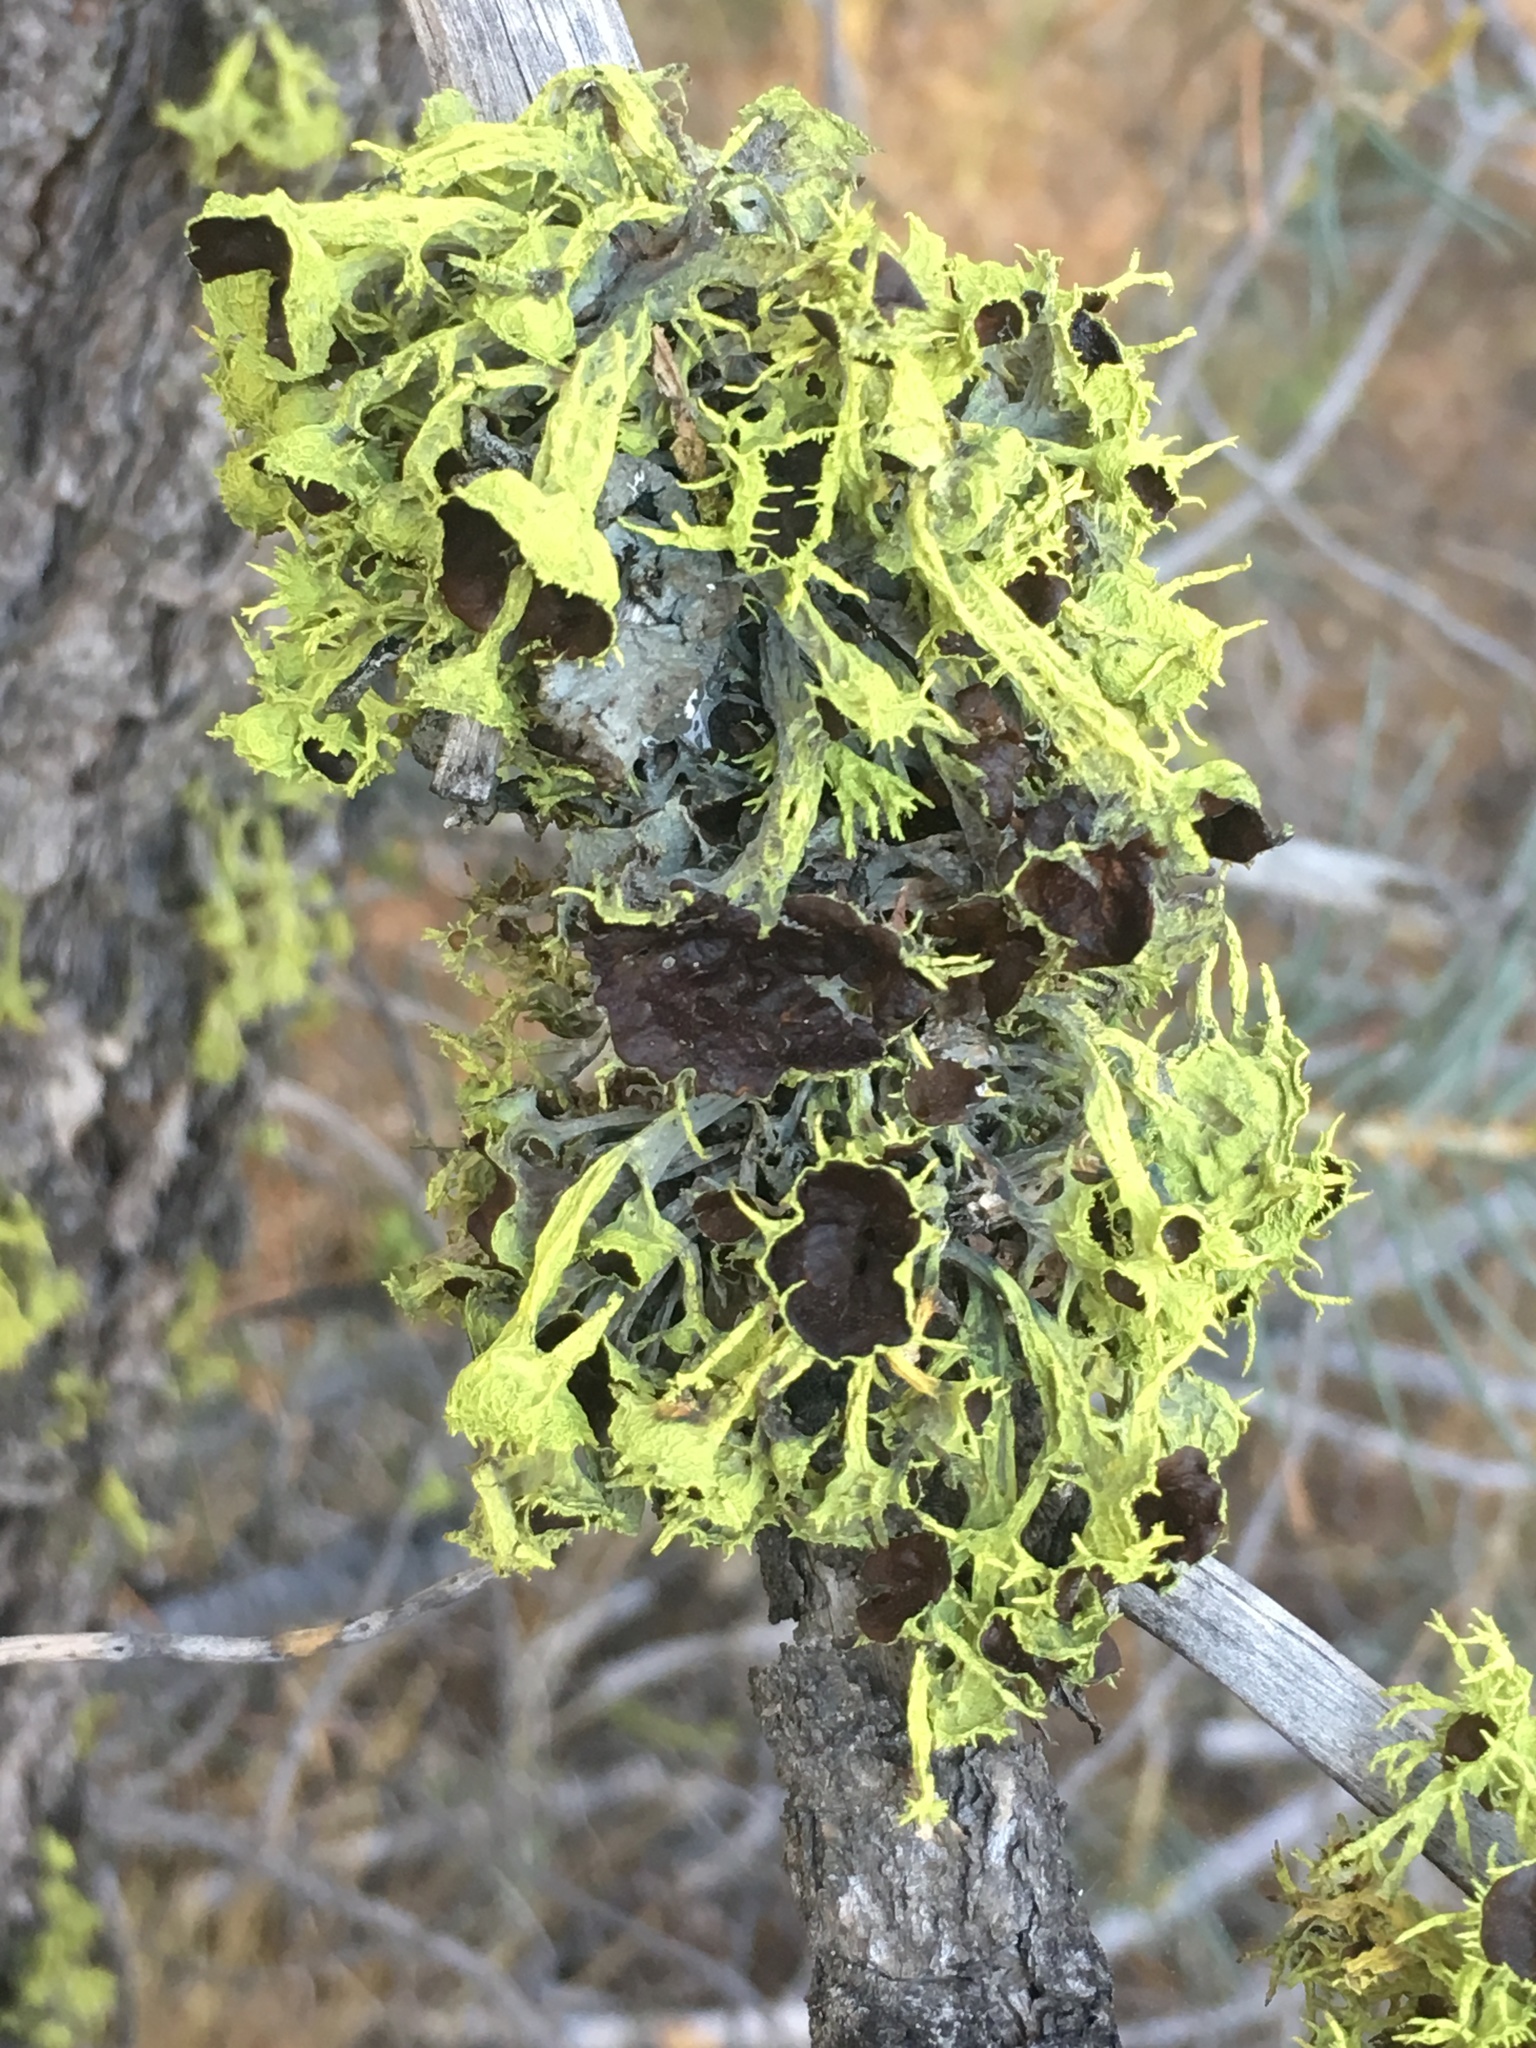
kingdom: Fungi
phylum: Ascomycota
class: Lecanoromycetes
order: Lecanorales
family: Parmeliaceae
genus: Letharia
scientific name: Letharia columbiana
